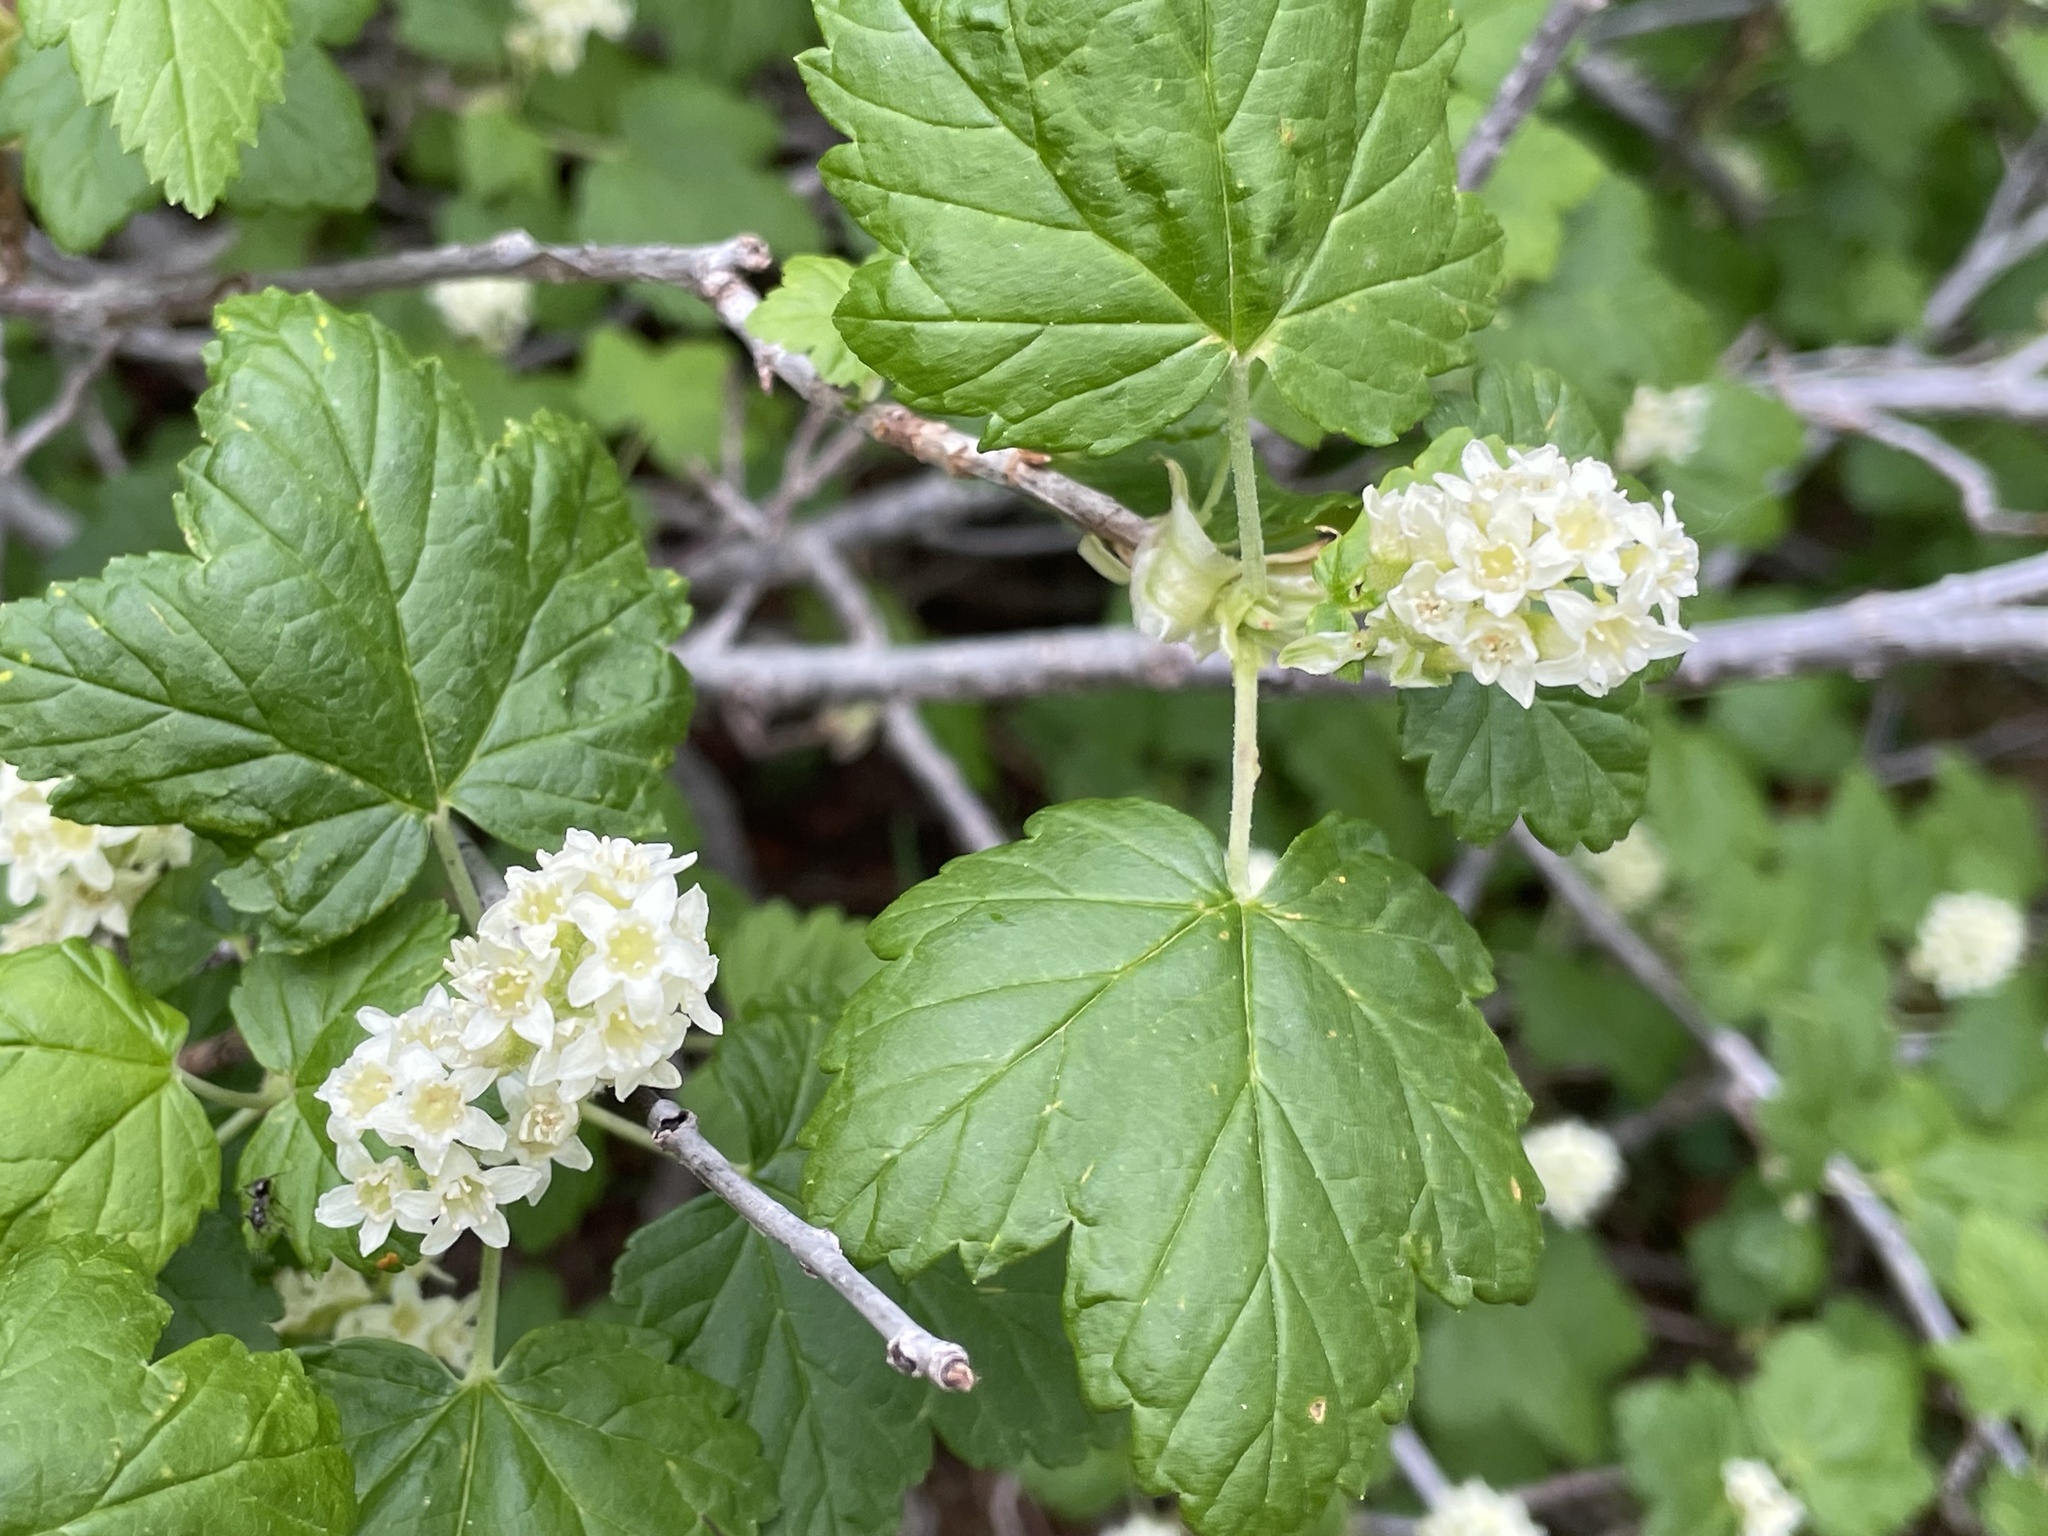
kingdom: Plantae
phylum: Tracheophyta
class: Magnoliopsida
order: Saxifragales
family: Grossulariaceae
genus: Ribes
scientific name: Ribes wolfii
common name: Rothrock currant
